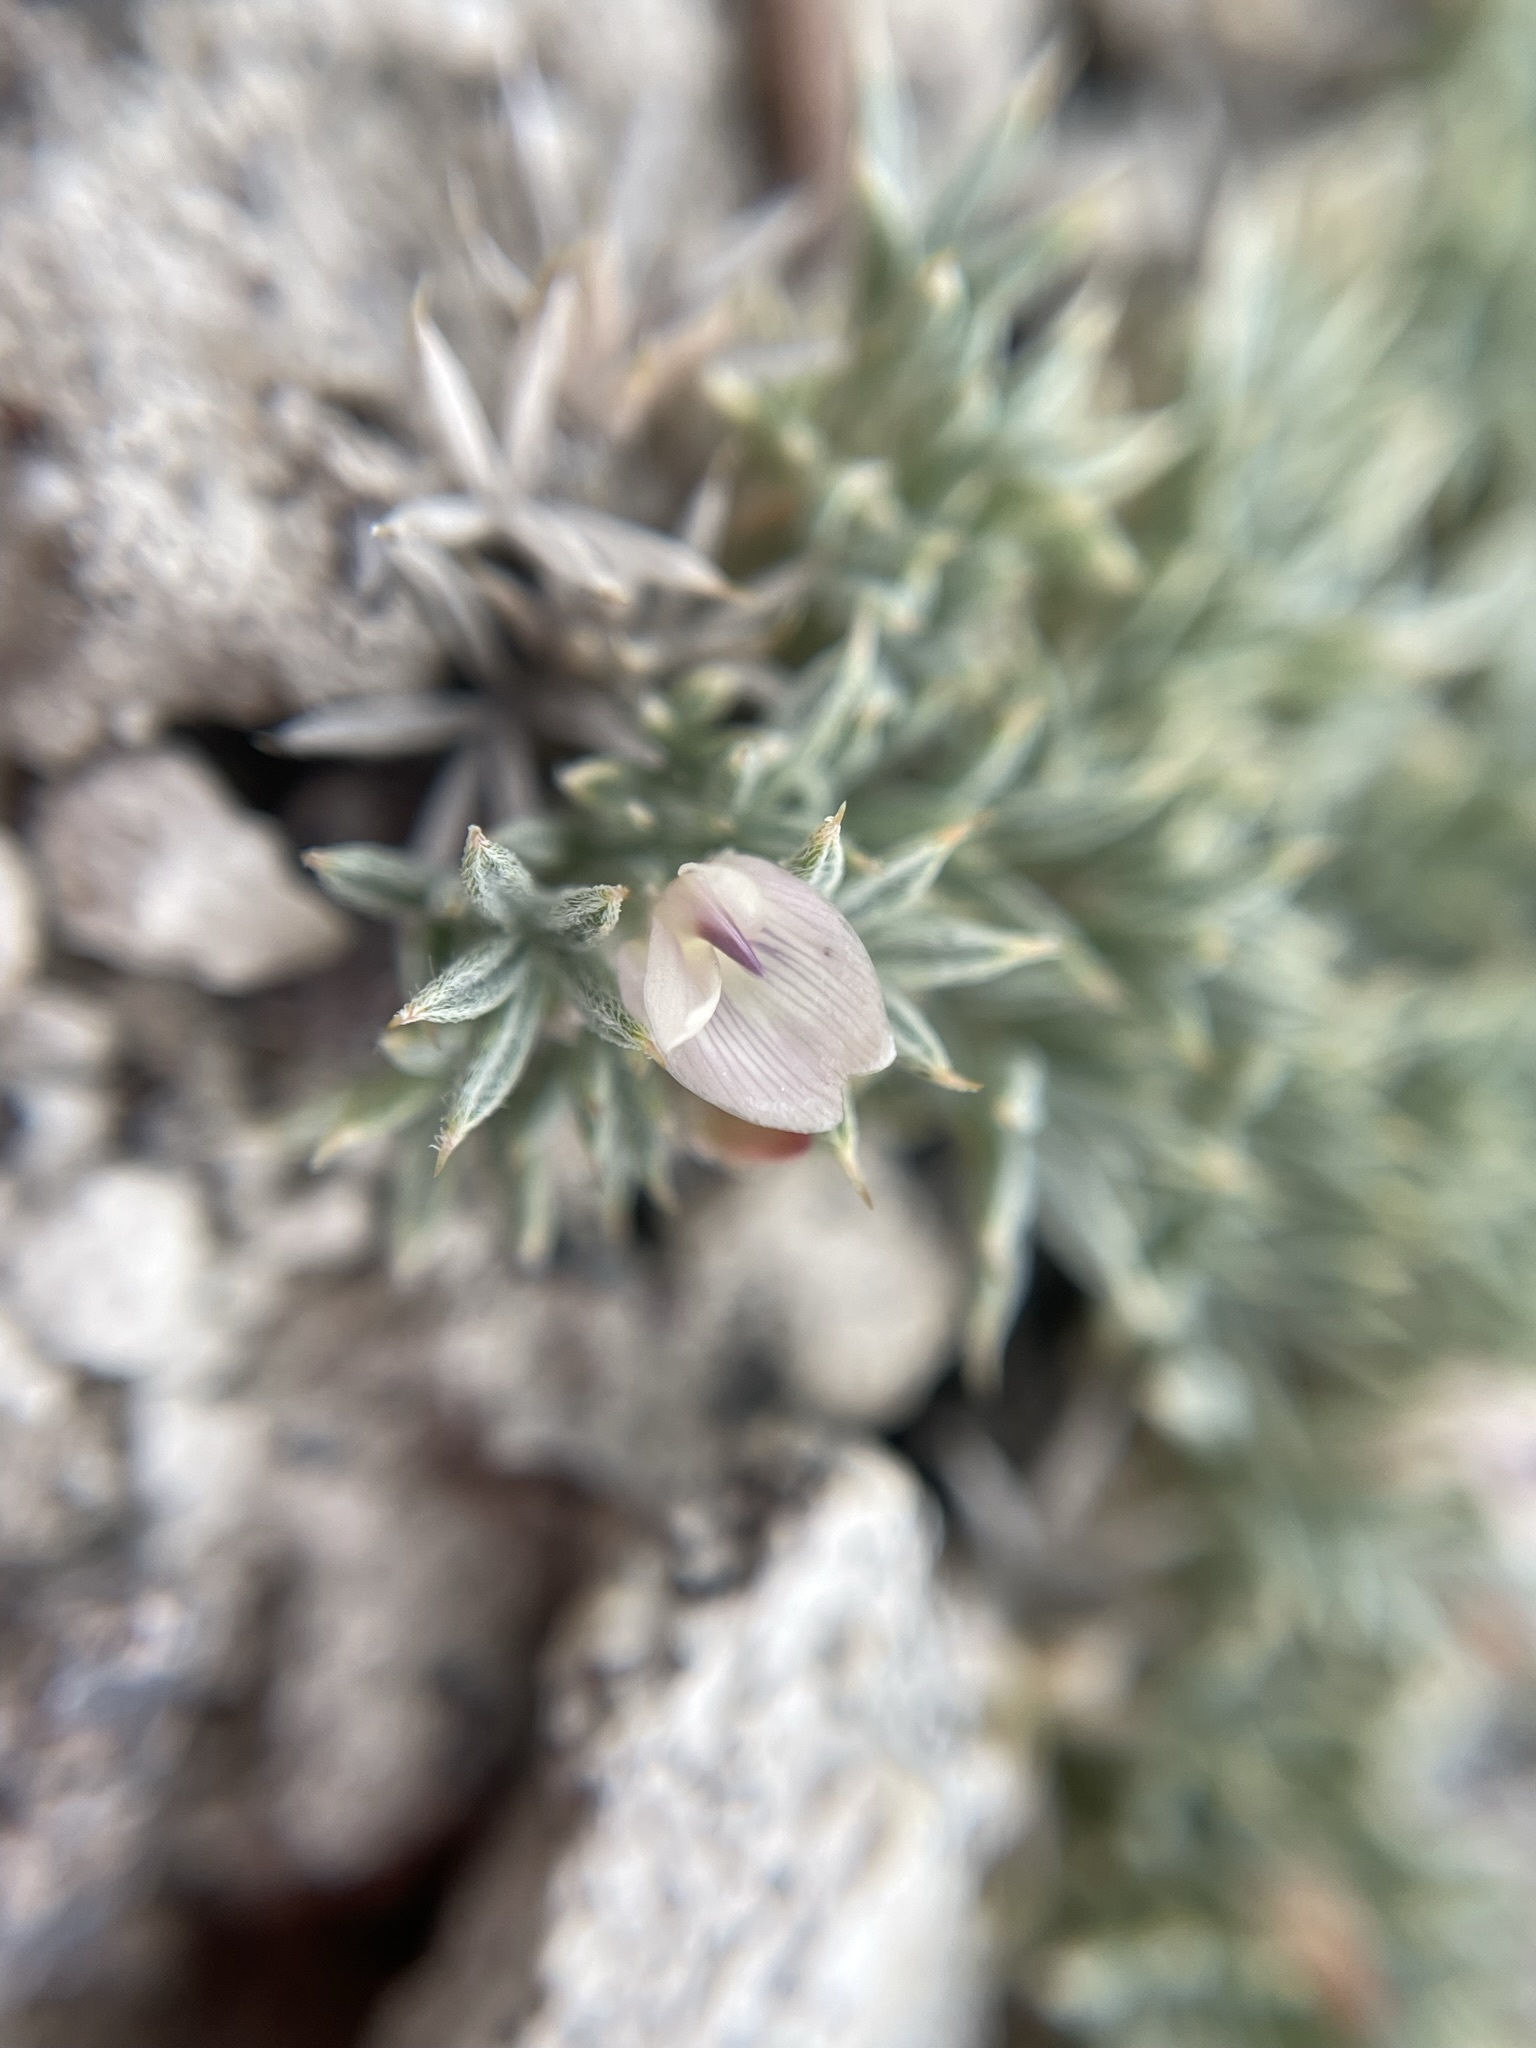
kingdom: Plantae
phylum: Tracheophyta
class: Magnoliopsida
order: Fabales
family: Fabaceae
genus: Astragalus
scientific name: Astragalus kentrophyta
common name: Prickly milk-vetch
